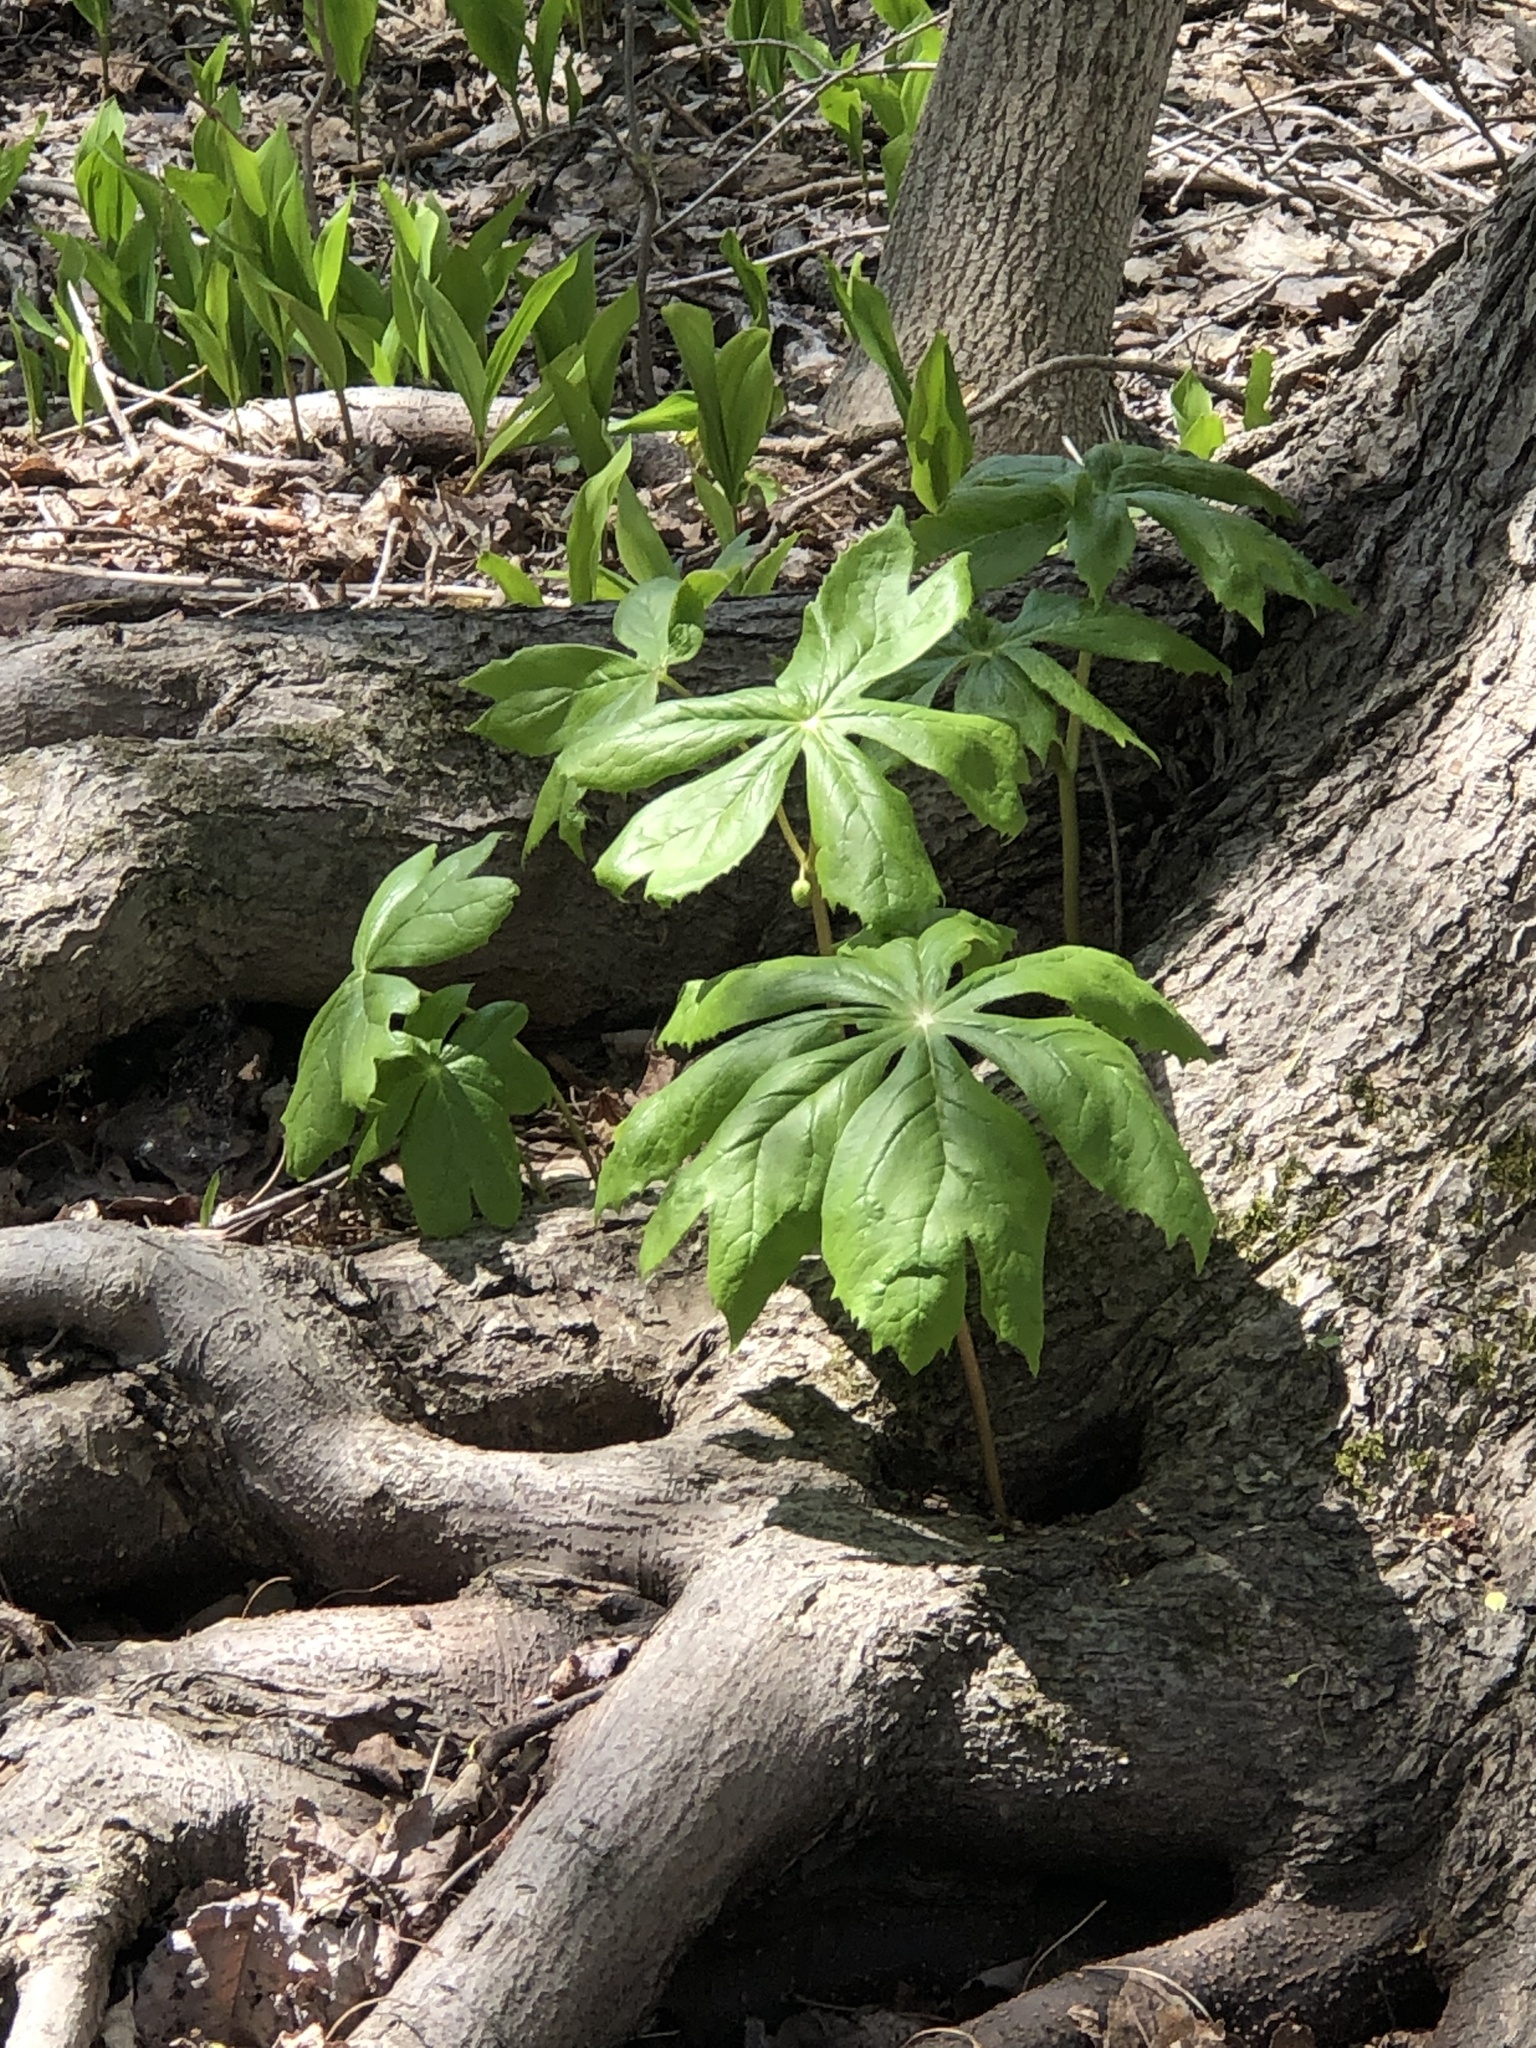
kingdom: Plantae
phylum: Tracheophyta
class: Magnoliopsida
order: Ranunculales
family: Berberidaceae
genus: Podophyllum
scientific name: Podophyllum peltatum
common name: Wild mandrake
